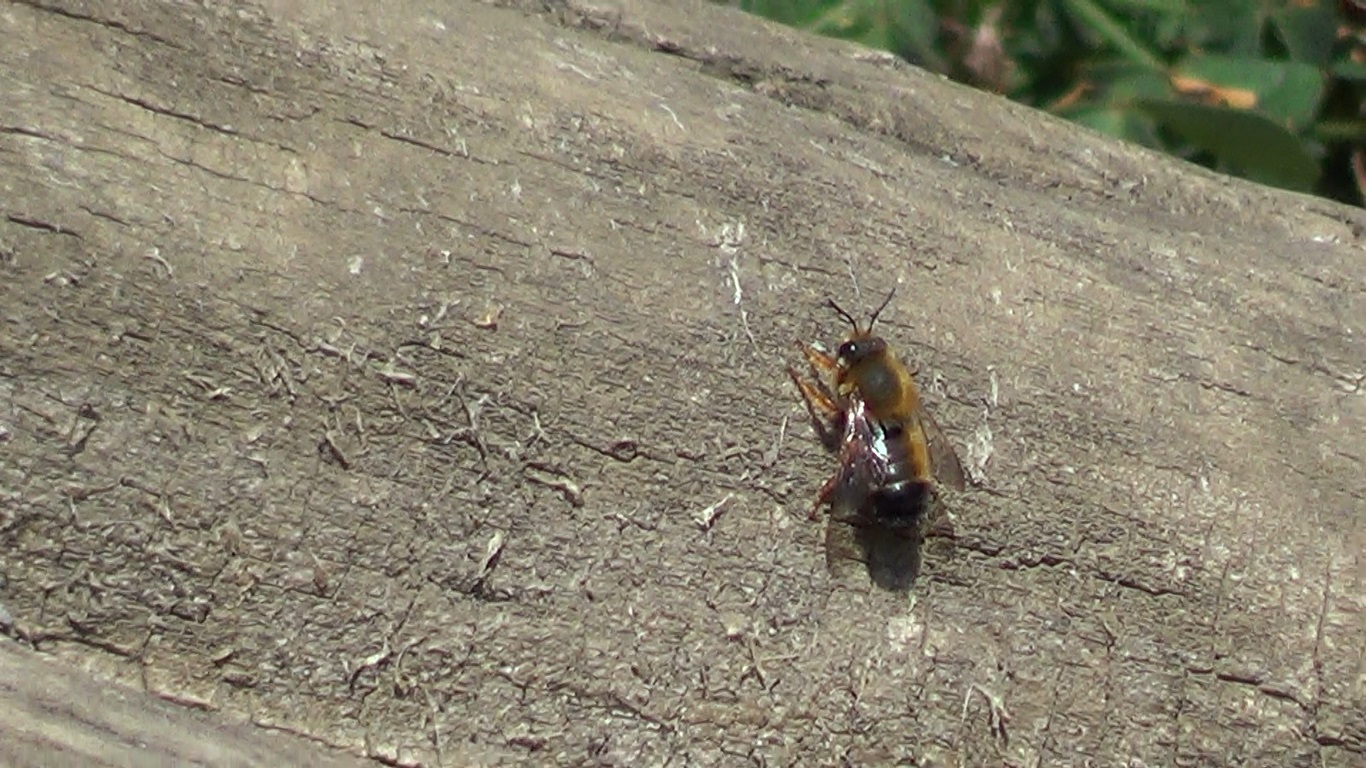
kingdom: Animalia
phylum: Arthropoda
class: Insecta
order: Hymenoptera
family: Megachilidae
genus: Megachile
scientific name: Megachile sicula
